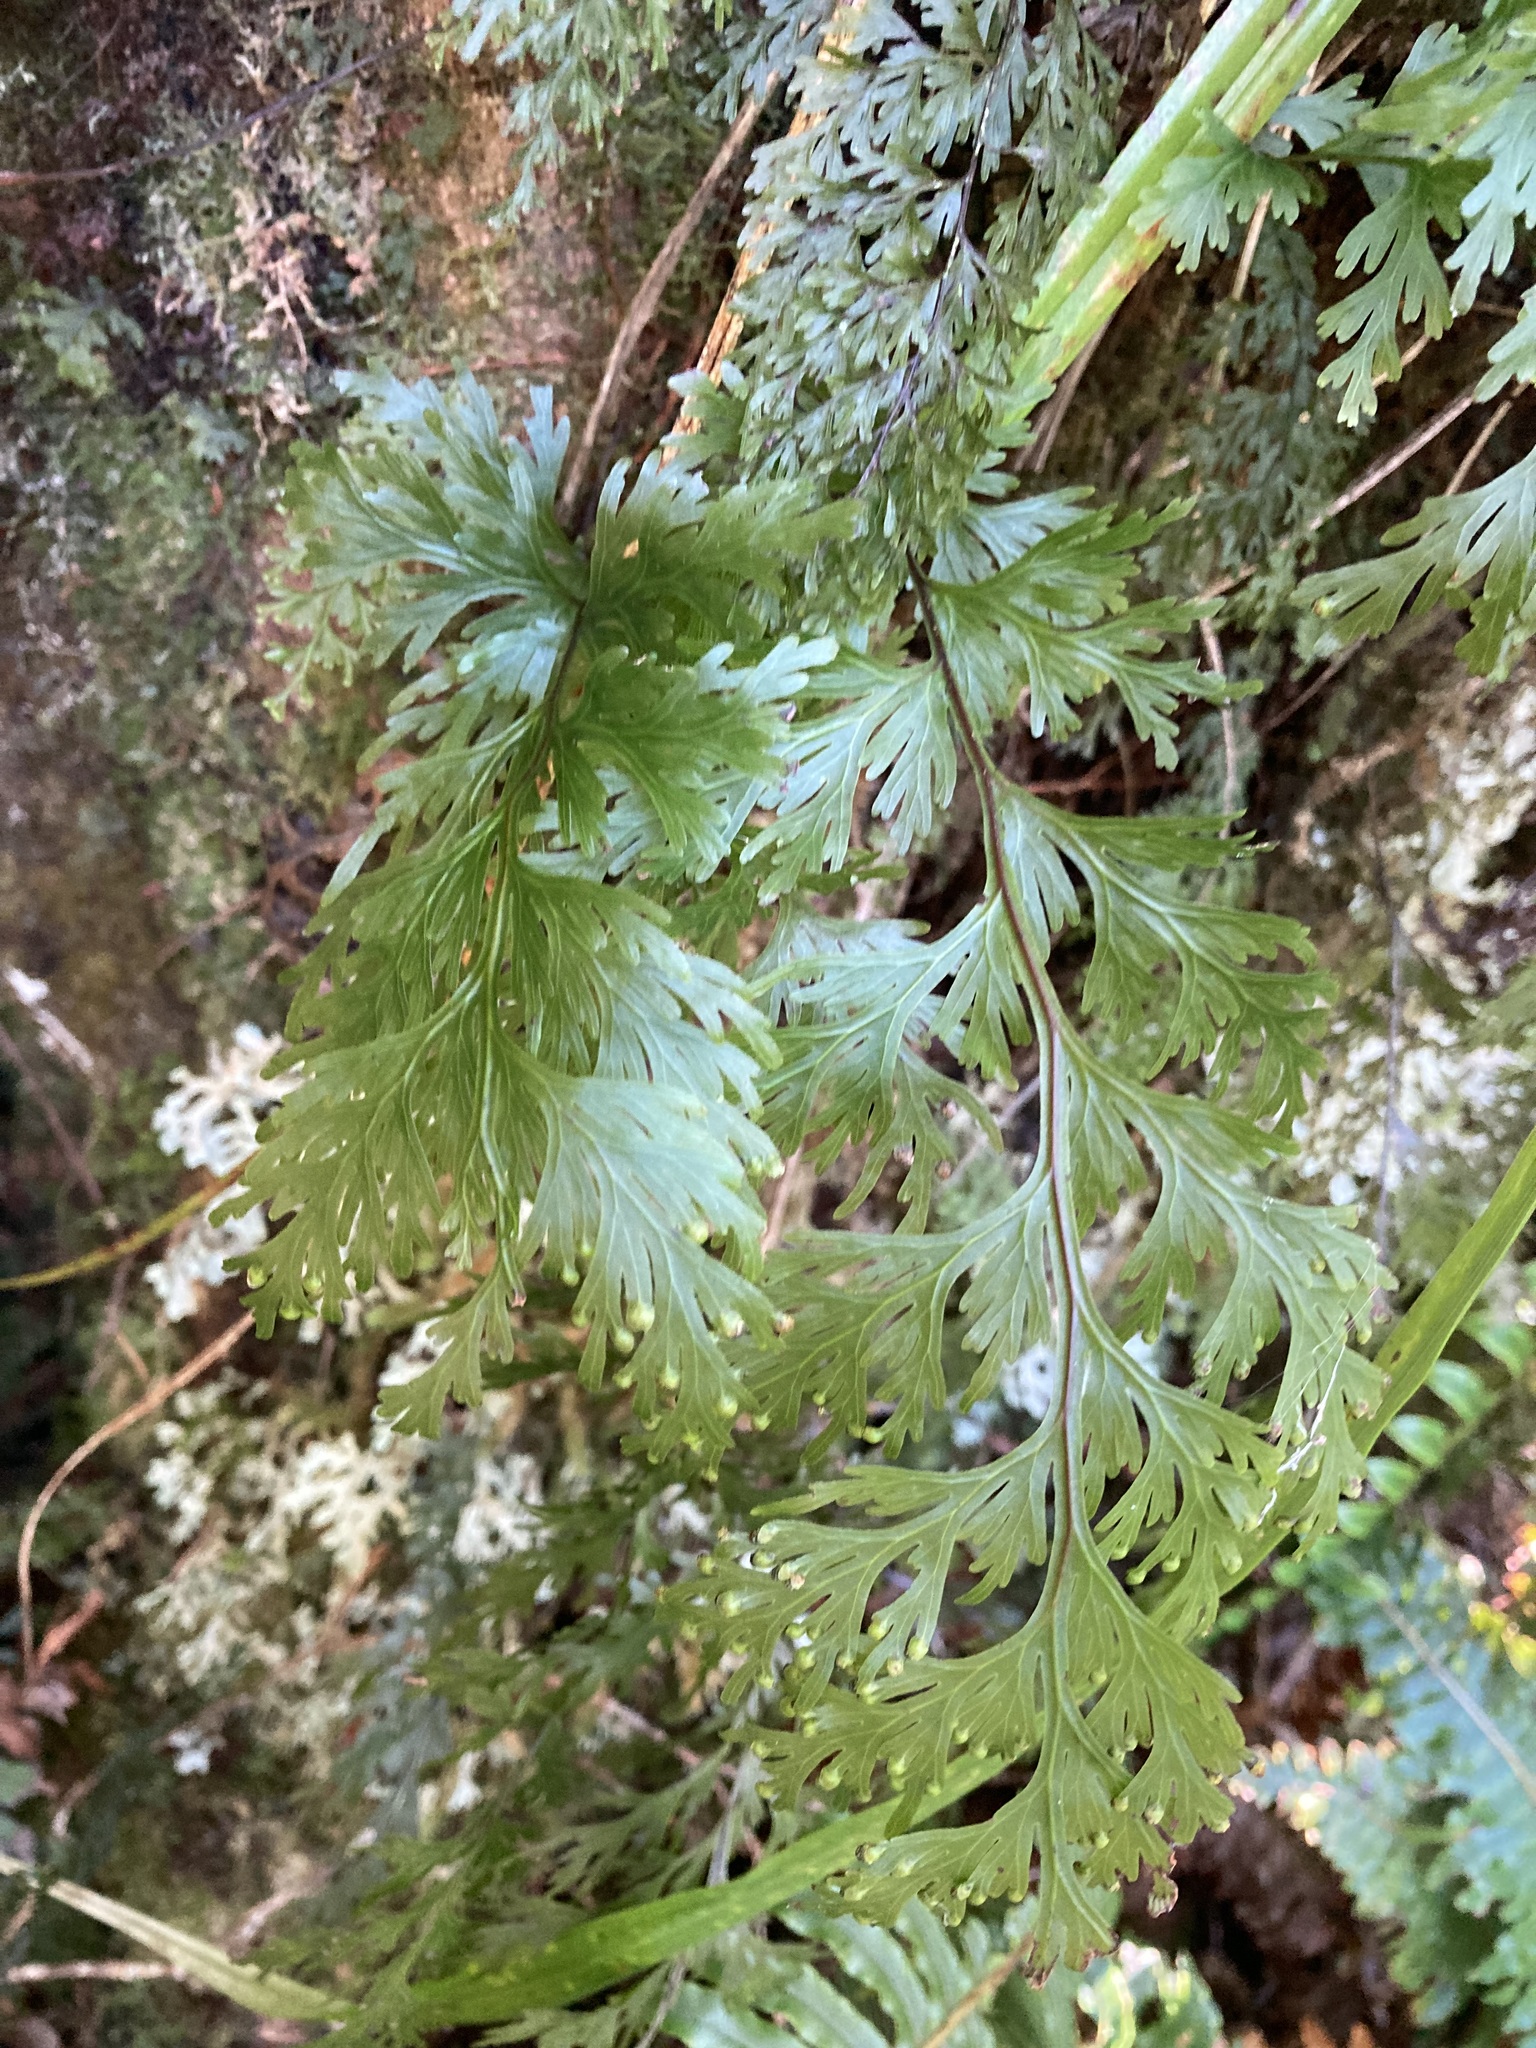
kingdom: Plantae
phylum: Tracheophyta
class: Polypodiopsida
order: Hymenophyllales
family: Hymenophyllaceae
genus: Hymenophyllum
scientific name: Hymenophyllum dilatatum
